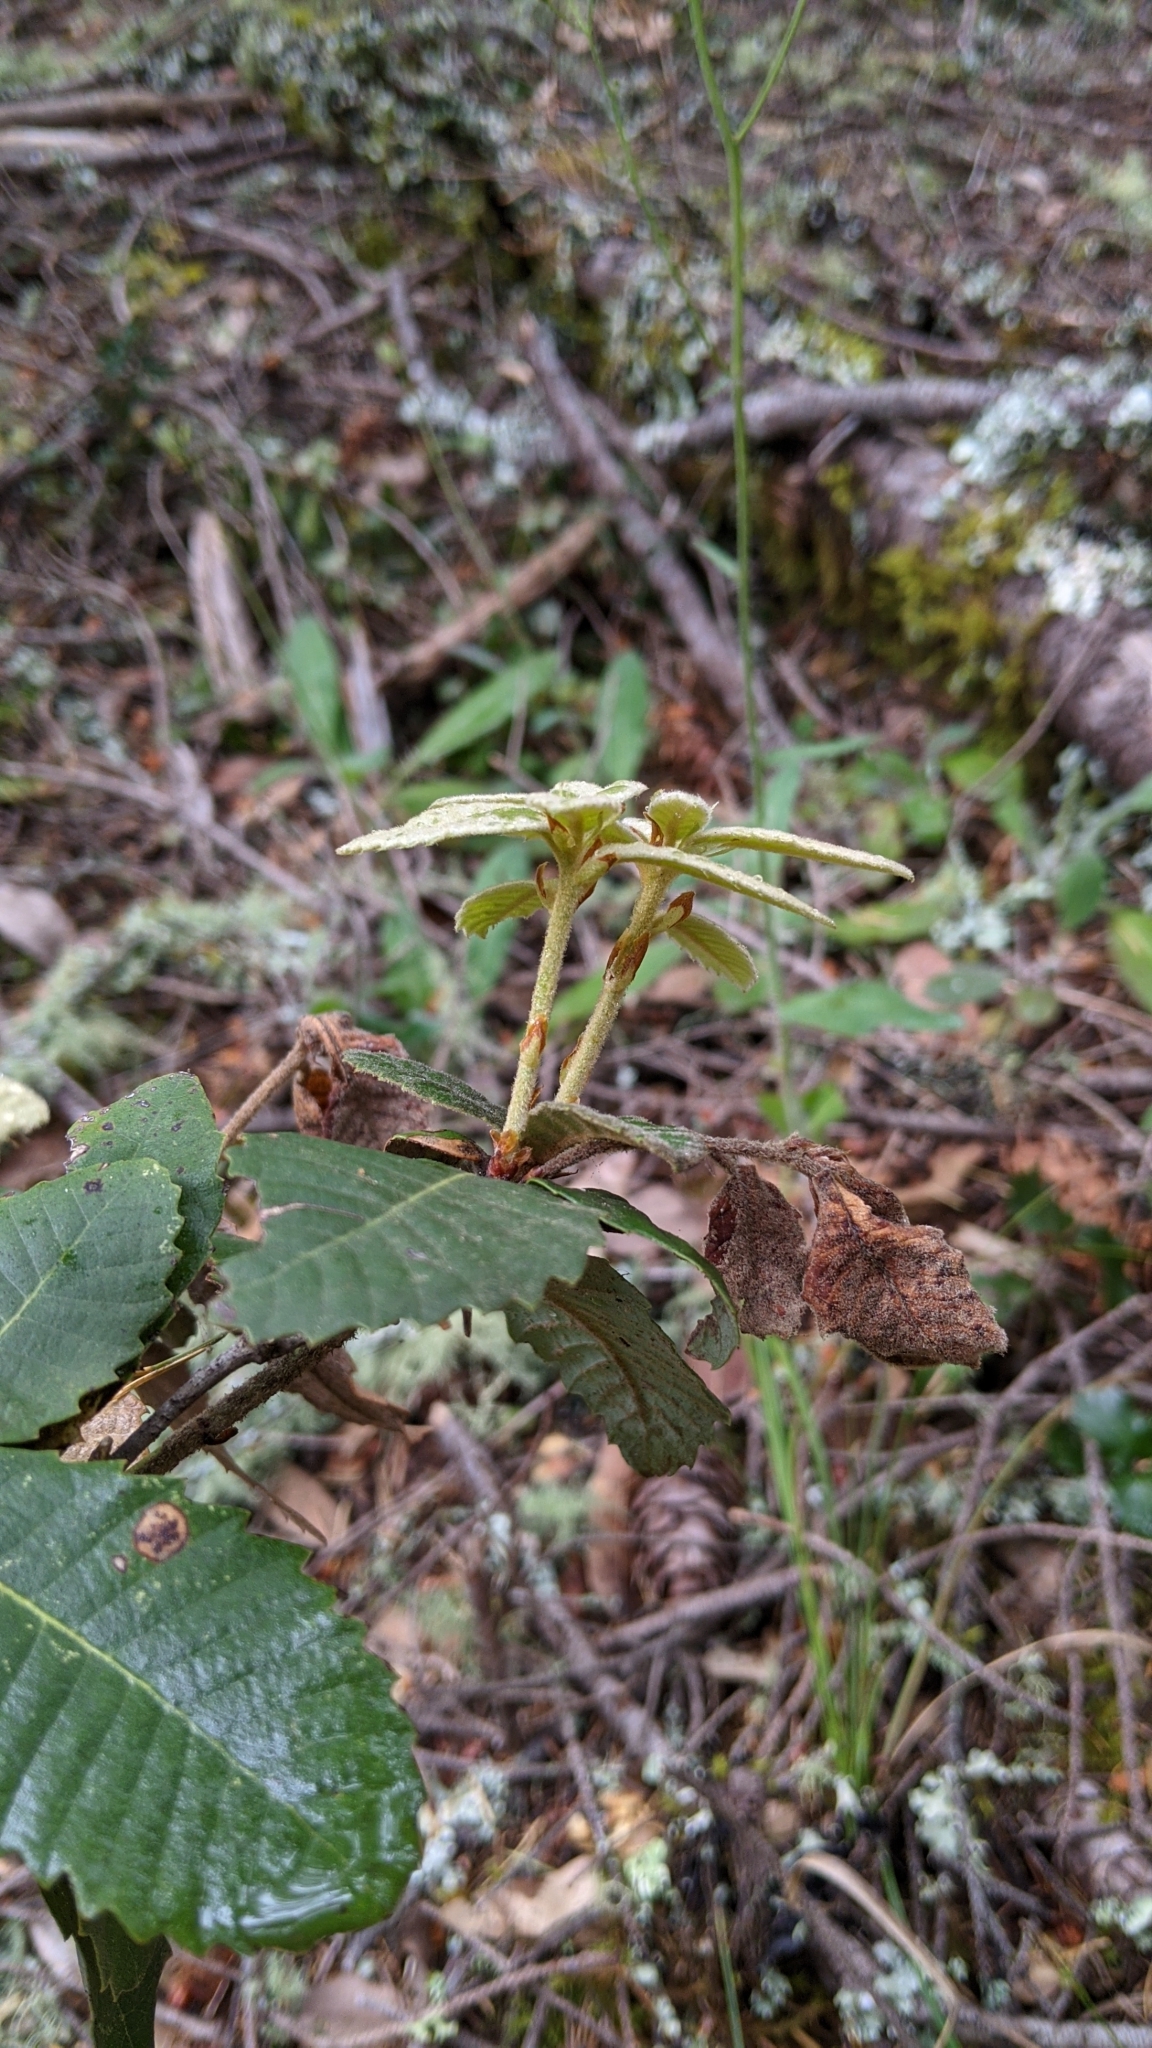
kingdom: Plantae
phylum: Tracheophyta
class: Magnoliopsida
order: Fagales
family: Fagaceae
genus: Notholithocarpus
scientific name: Notholithocarpus densiflorus
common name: Tan bark oak
